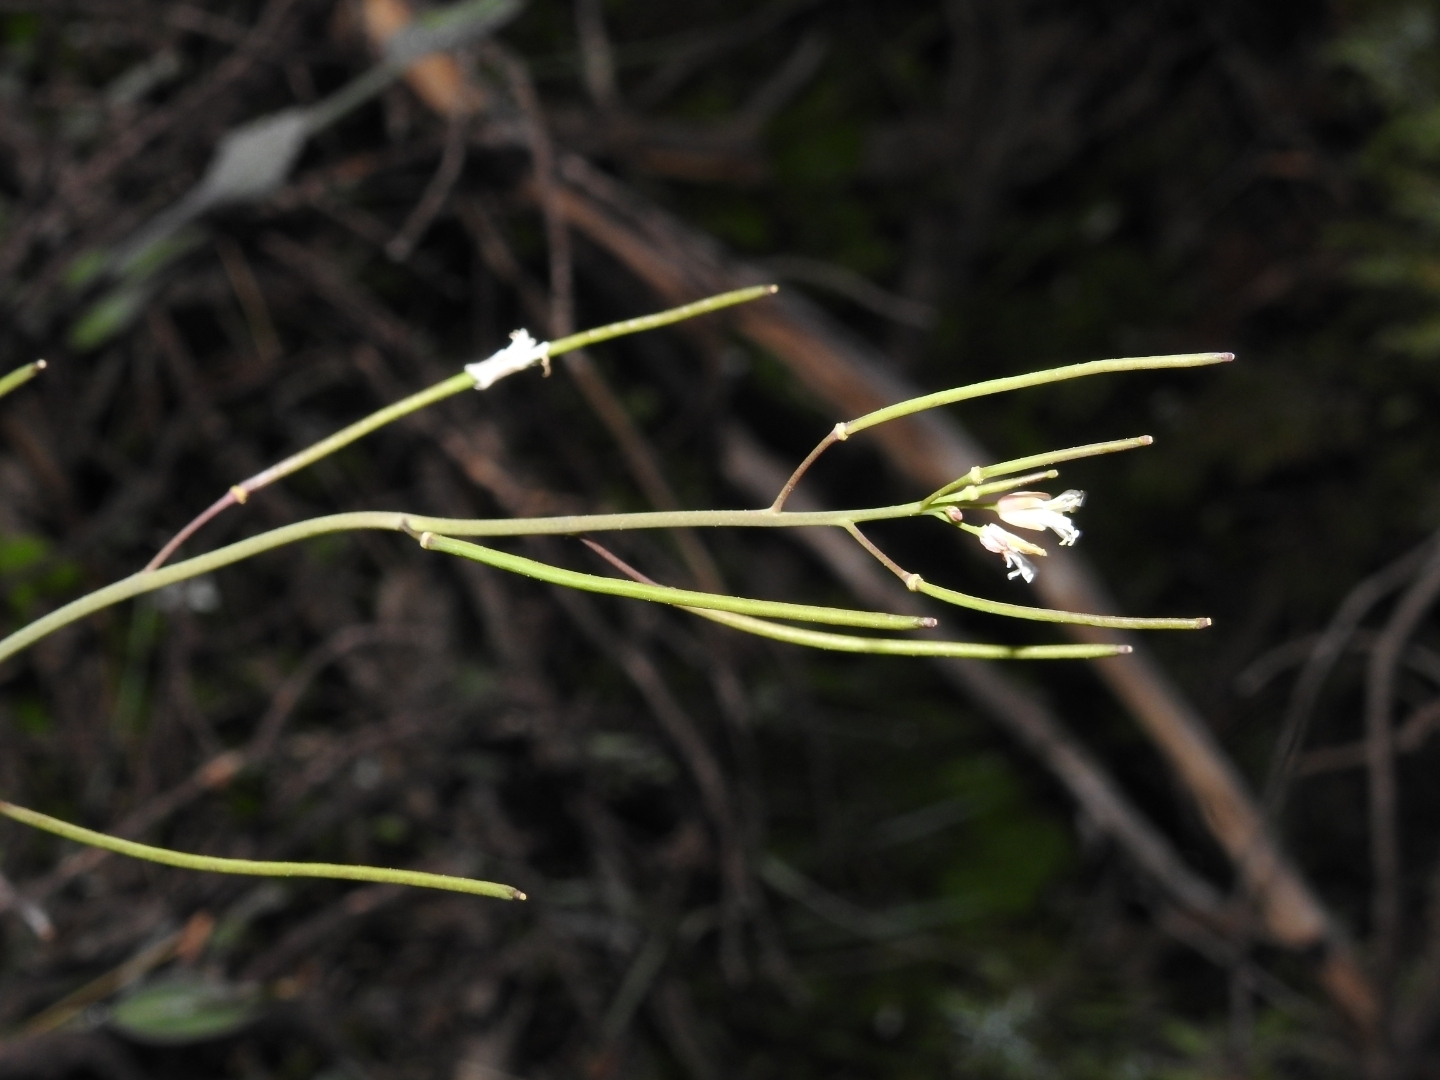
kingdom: Plantae
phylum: Tracheophyta
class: Magnoliopsida
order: Brassicales
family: Brassicaceae
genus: Fourraea
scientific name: Fourraea alpina
